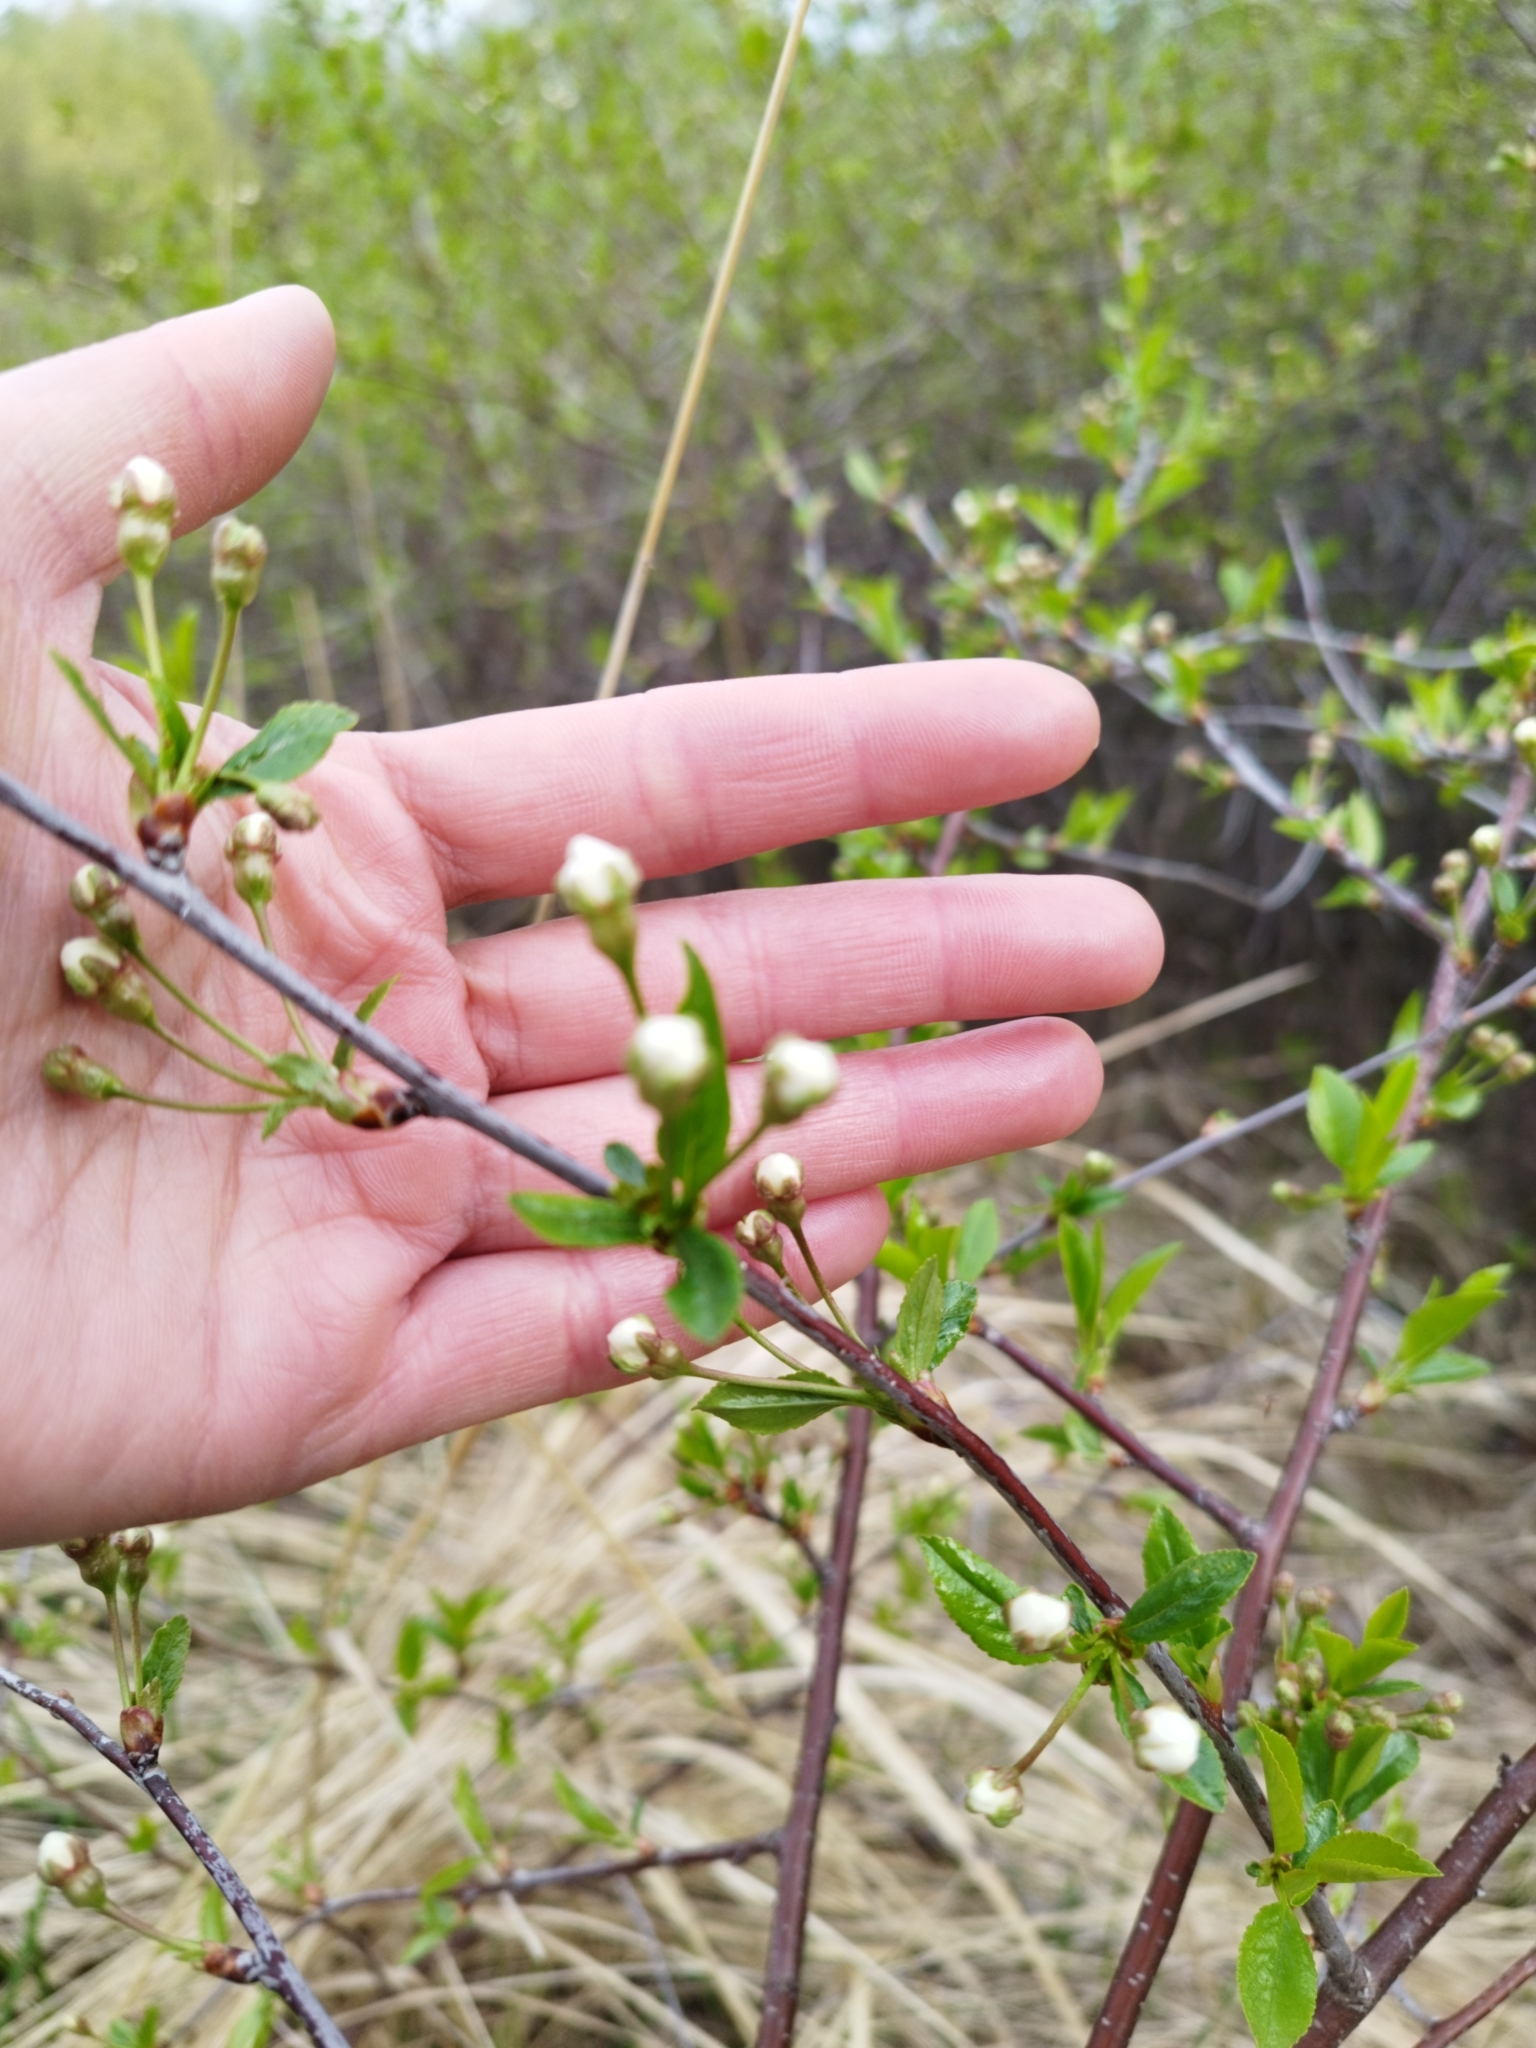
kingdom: Plantae
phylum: Tracheophyta
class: Magnoliopsida
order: Rosales
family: Rosaceae
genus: Prunus
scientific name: Prunus cerasus
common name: Morello cherry
